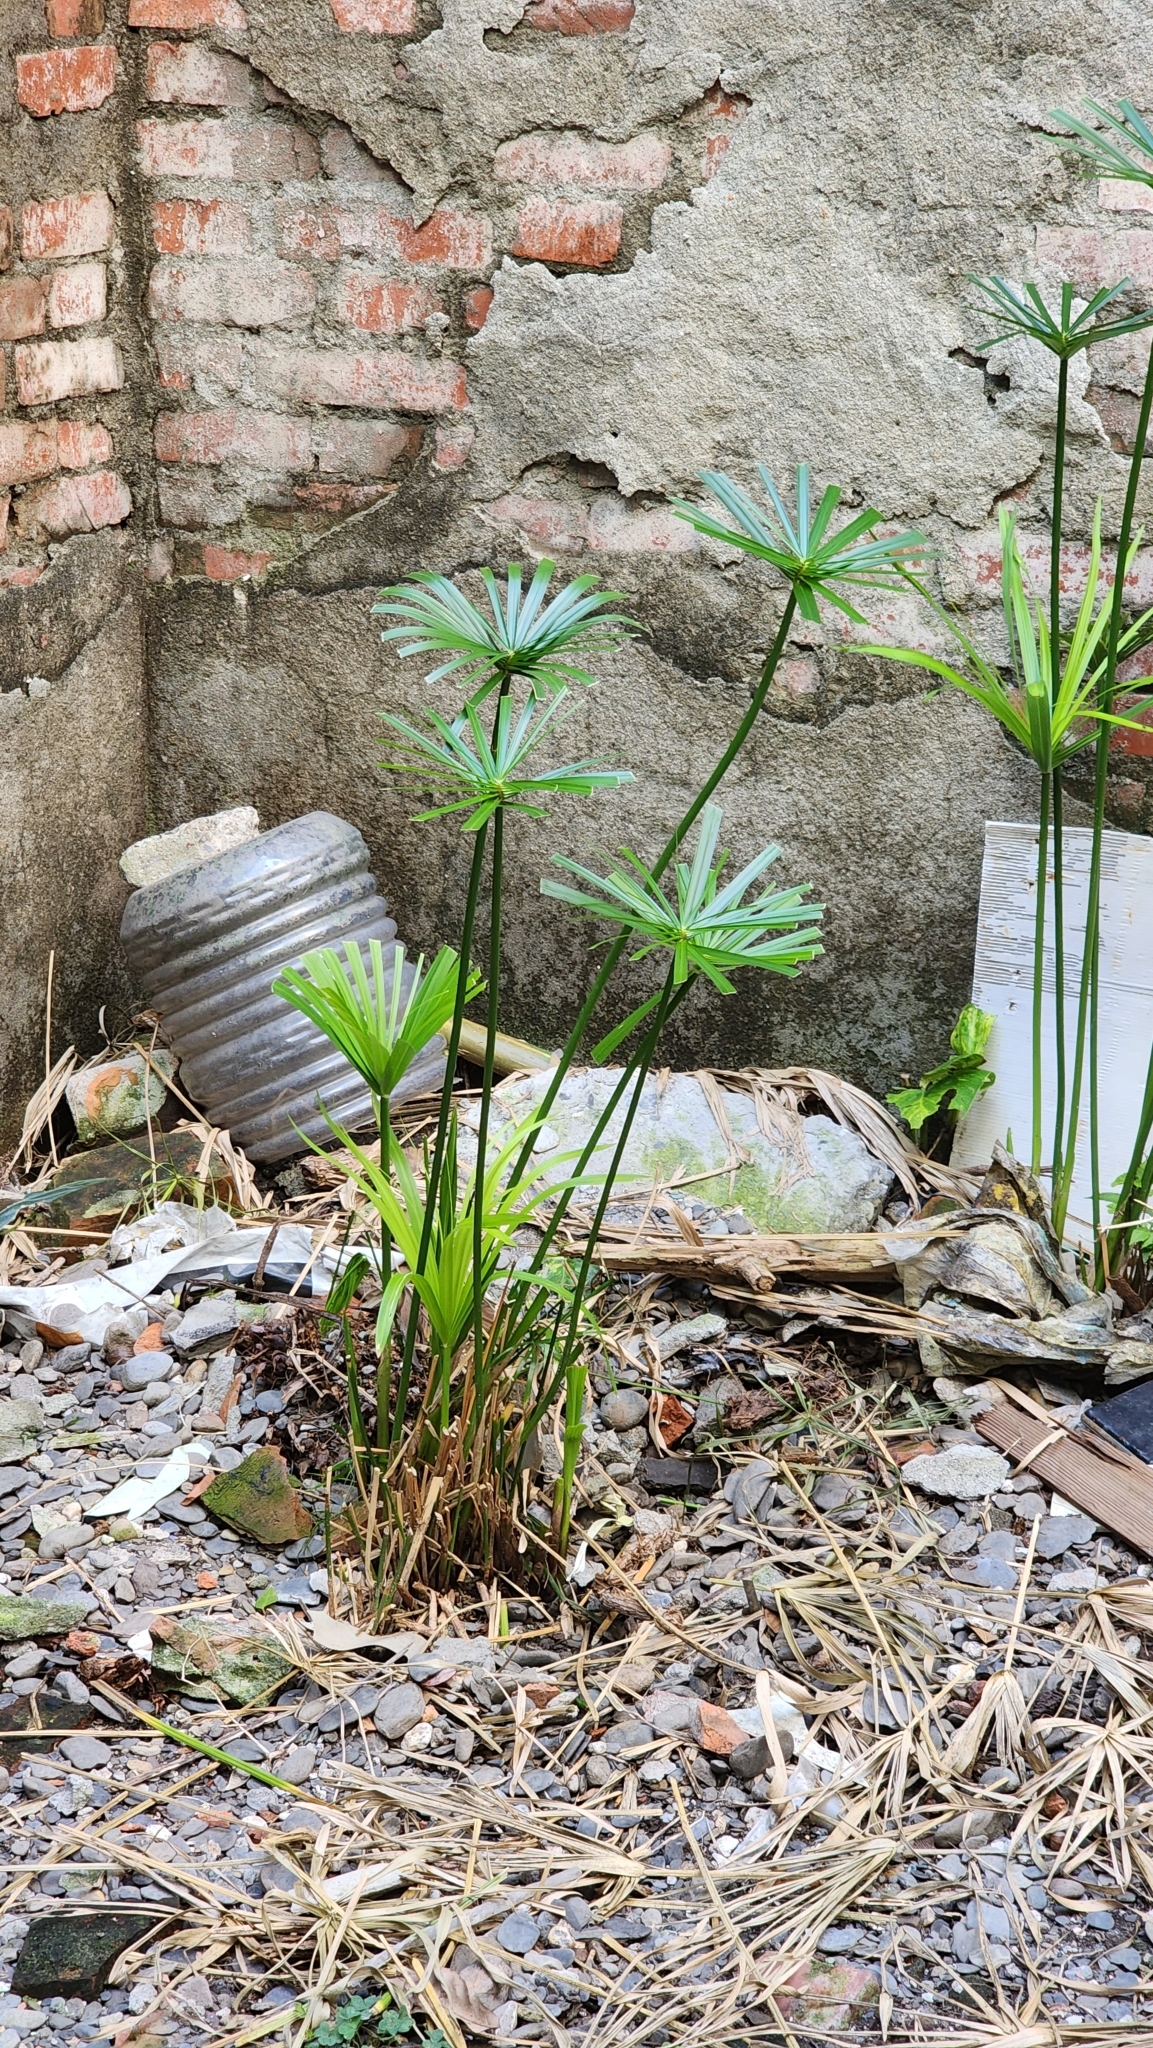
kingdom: Plantae
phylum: Tracheophyta
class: Liliopsida
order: Poales
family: Cyperaceae
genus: Cyperus
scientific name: Cyperus alternifolius
